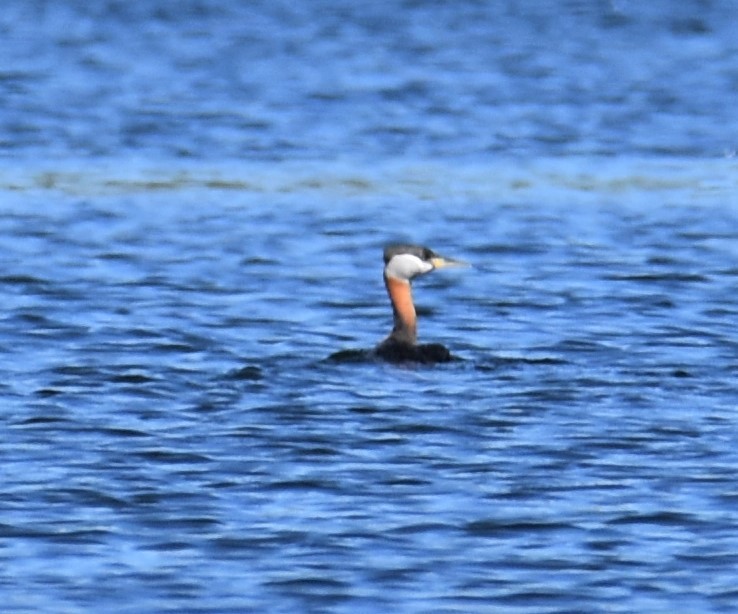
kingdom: Animalia
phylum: Chordata
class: Aves
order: Podicipediformes
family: Podicipedidae
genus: Podiceps
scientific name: Podiceps grisegena
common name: Red-necked grebe
